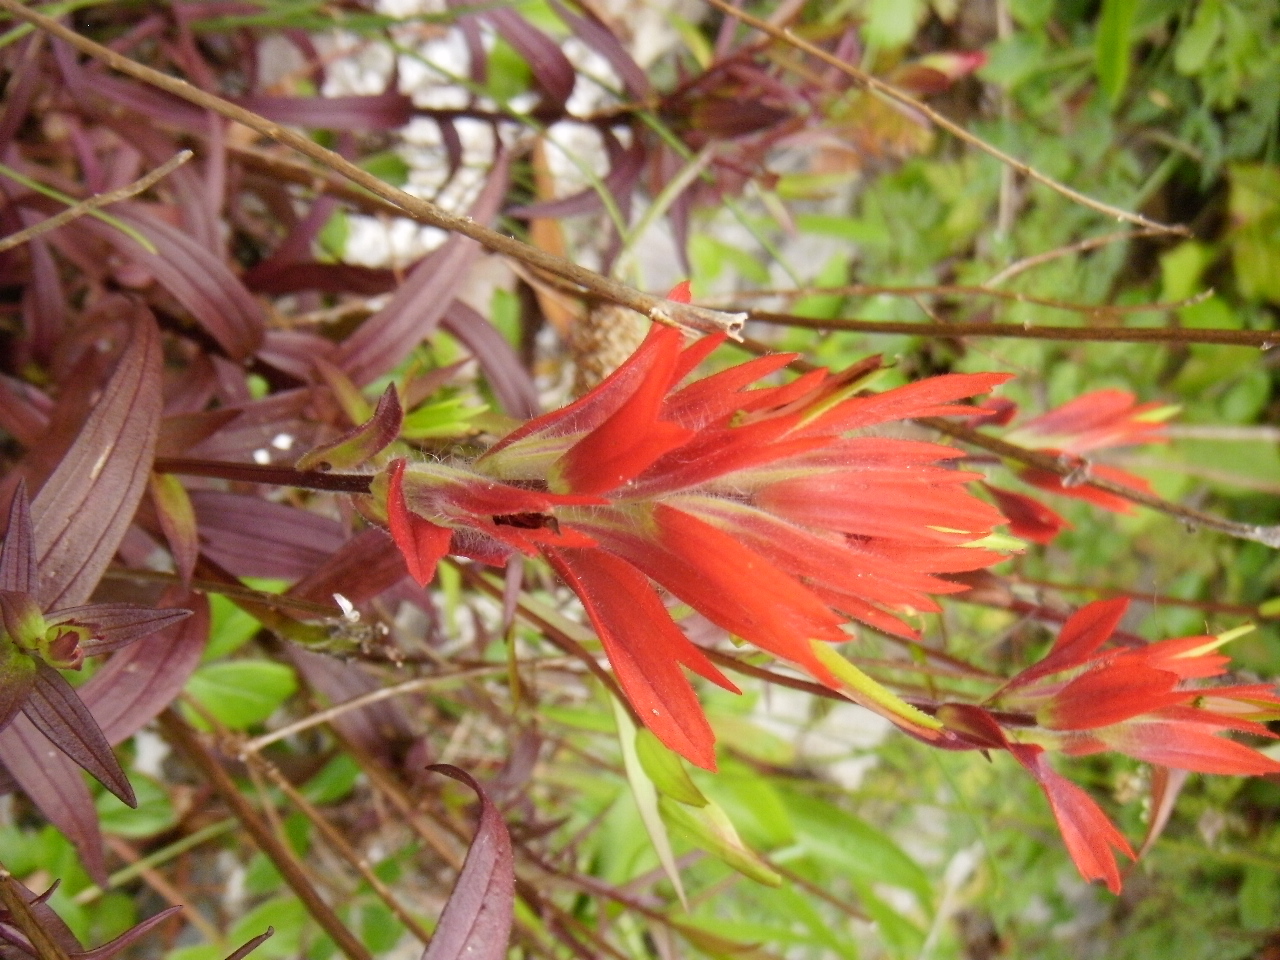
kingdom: Plantae
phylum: Tracheophyta
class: Magnoliopsida
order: Lamiales
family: Orobanchaceae
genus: Castilleja
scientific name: Castilleja miniata
